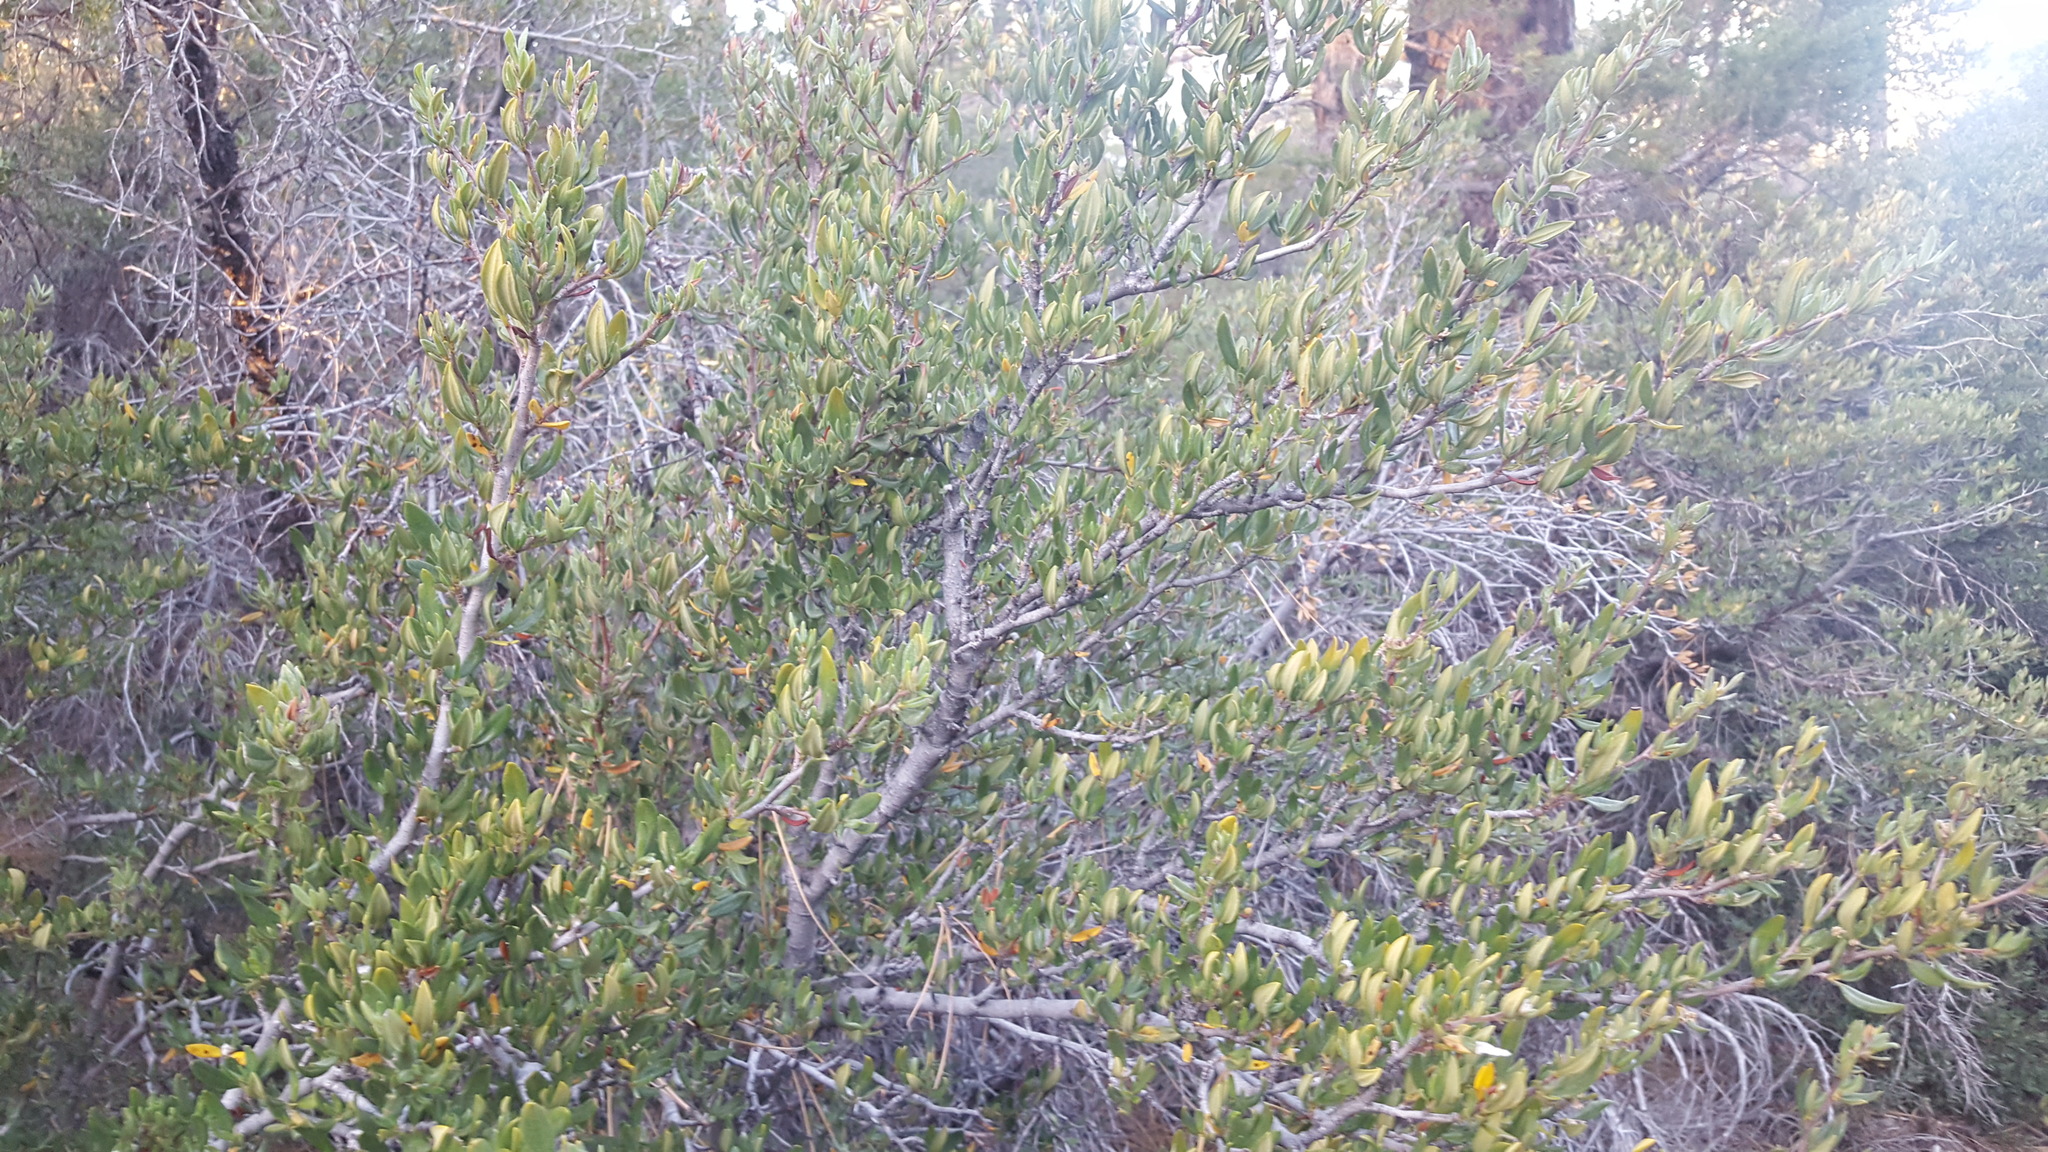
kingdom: Plantae
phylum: Tracheophyta
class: Magnoliopsida
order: Rosales
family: Rosaceae
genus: Cercocarpus
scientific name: Cercocarpus ledifolius
